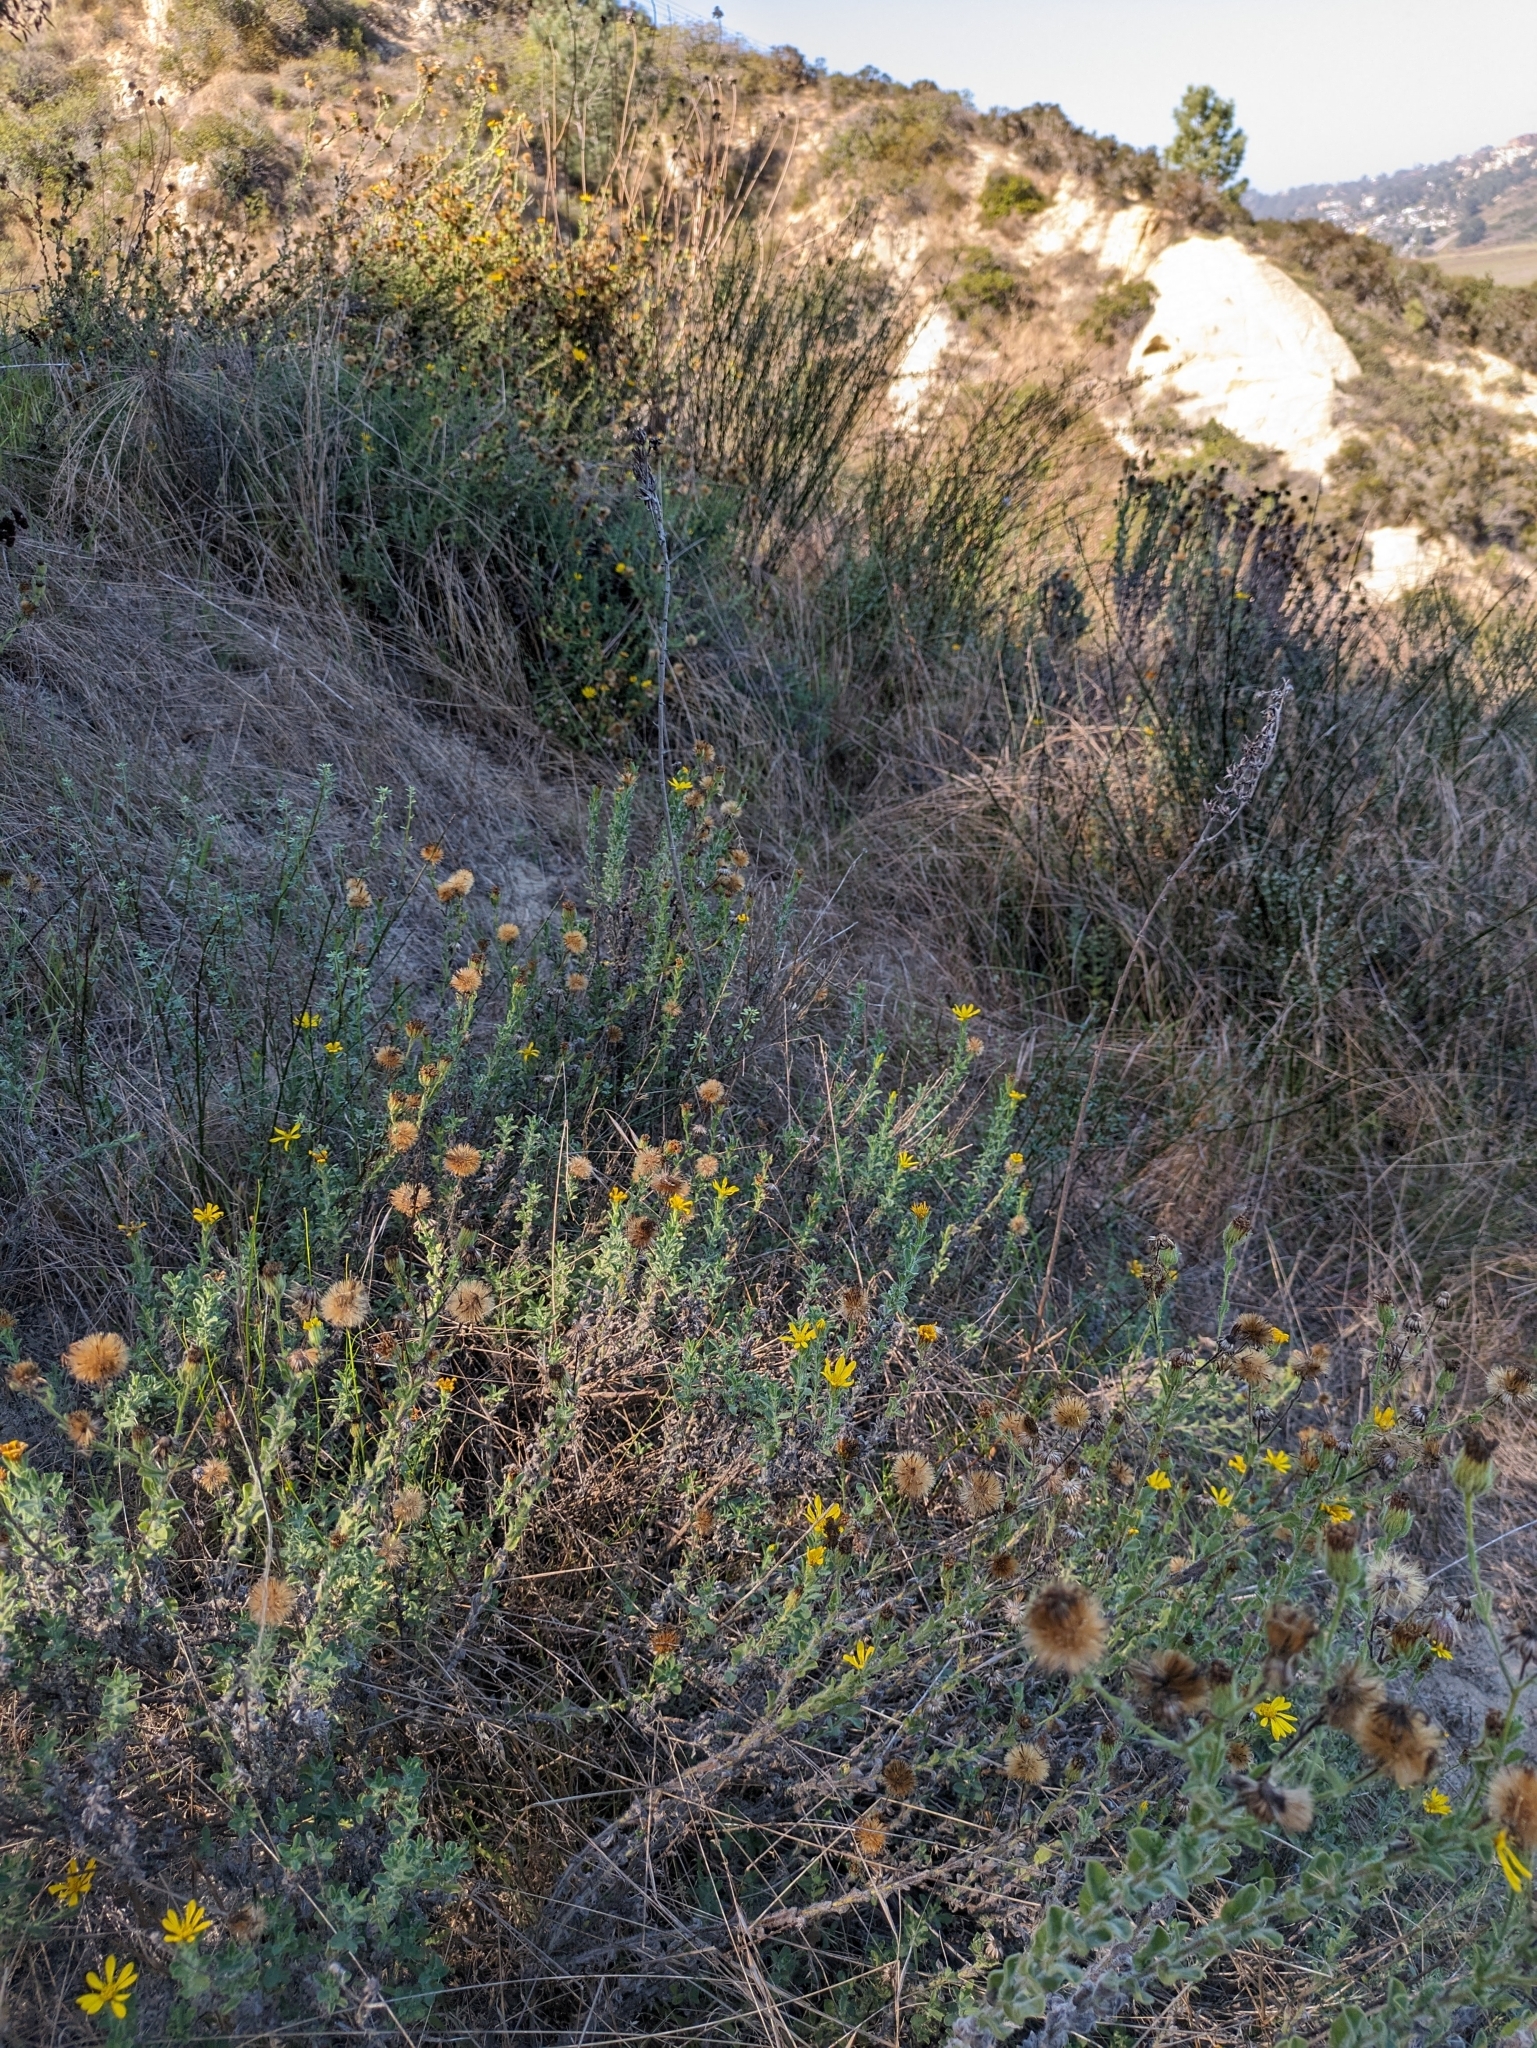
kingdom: Plantae
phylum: Tracheophyta
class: Magnoliopsida
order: Asterales
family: Asteraceae
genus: Heterotheca
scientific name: Heterotheca sessiliflora
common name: Sessile-flower golden-aster
